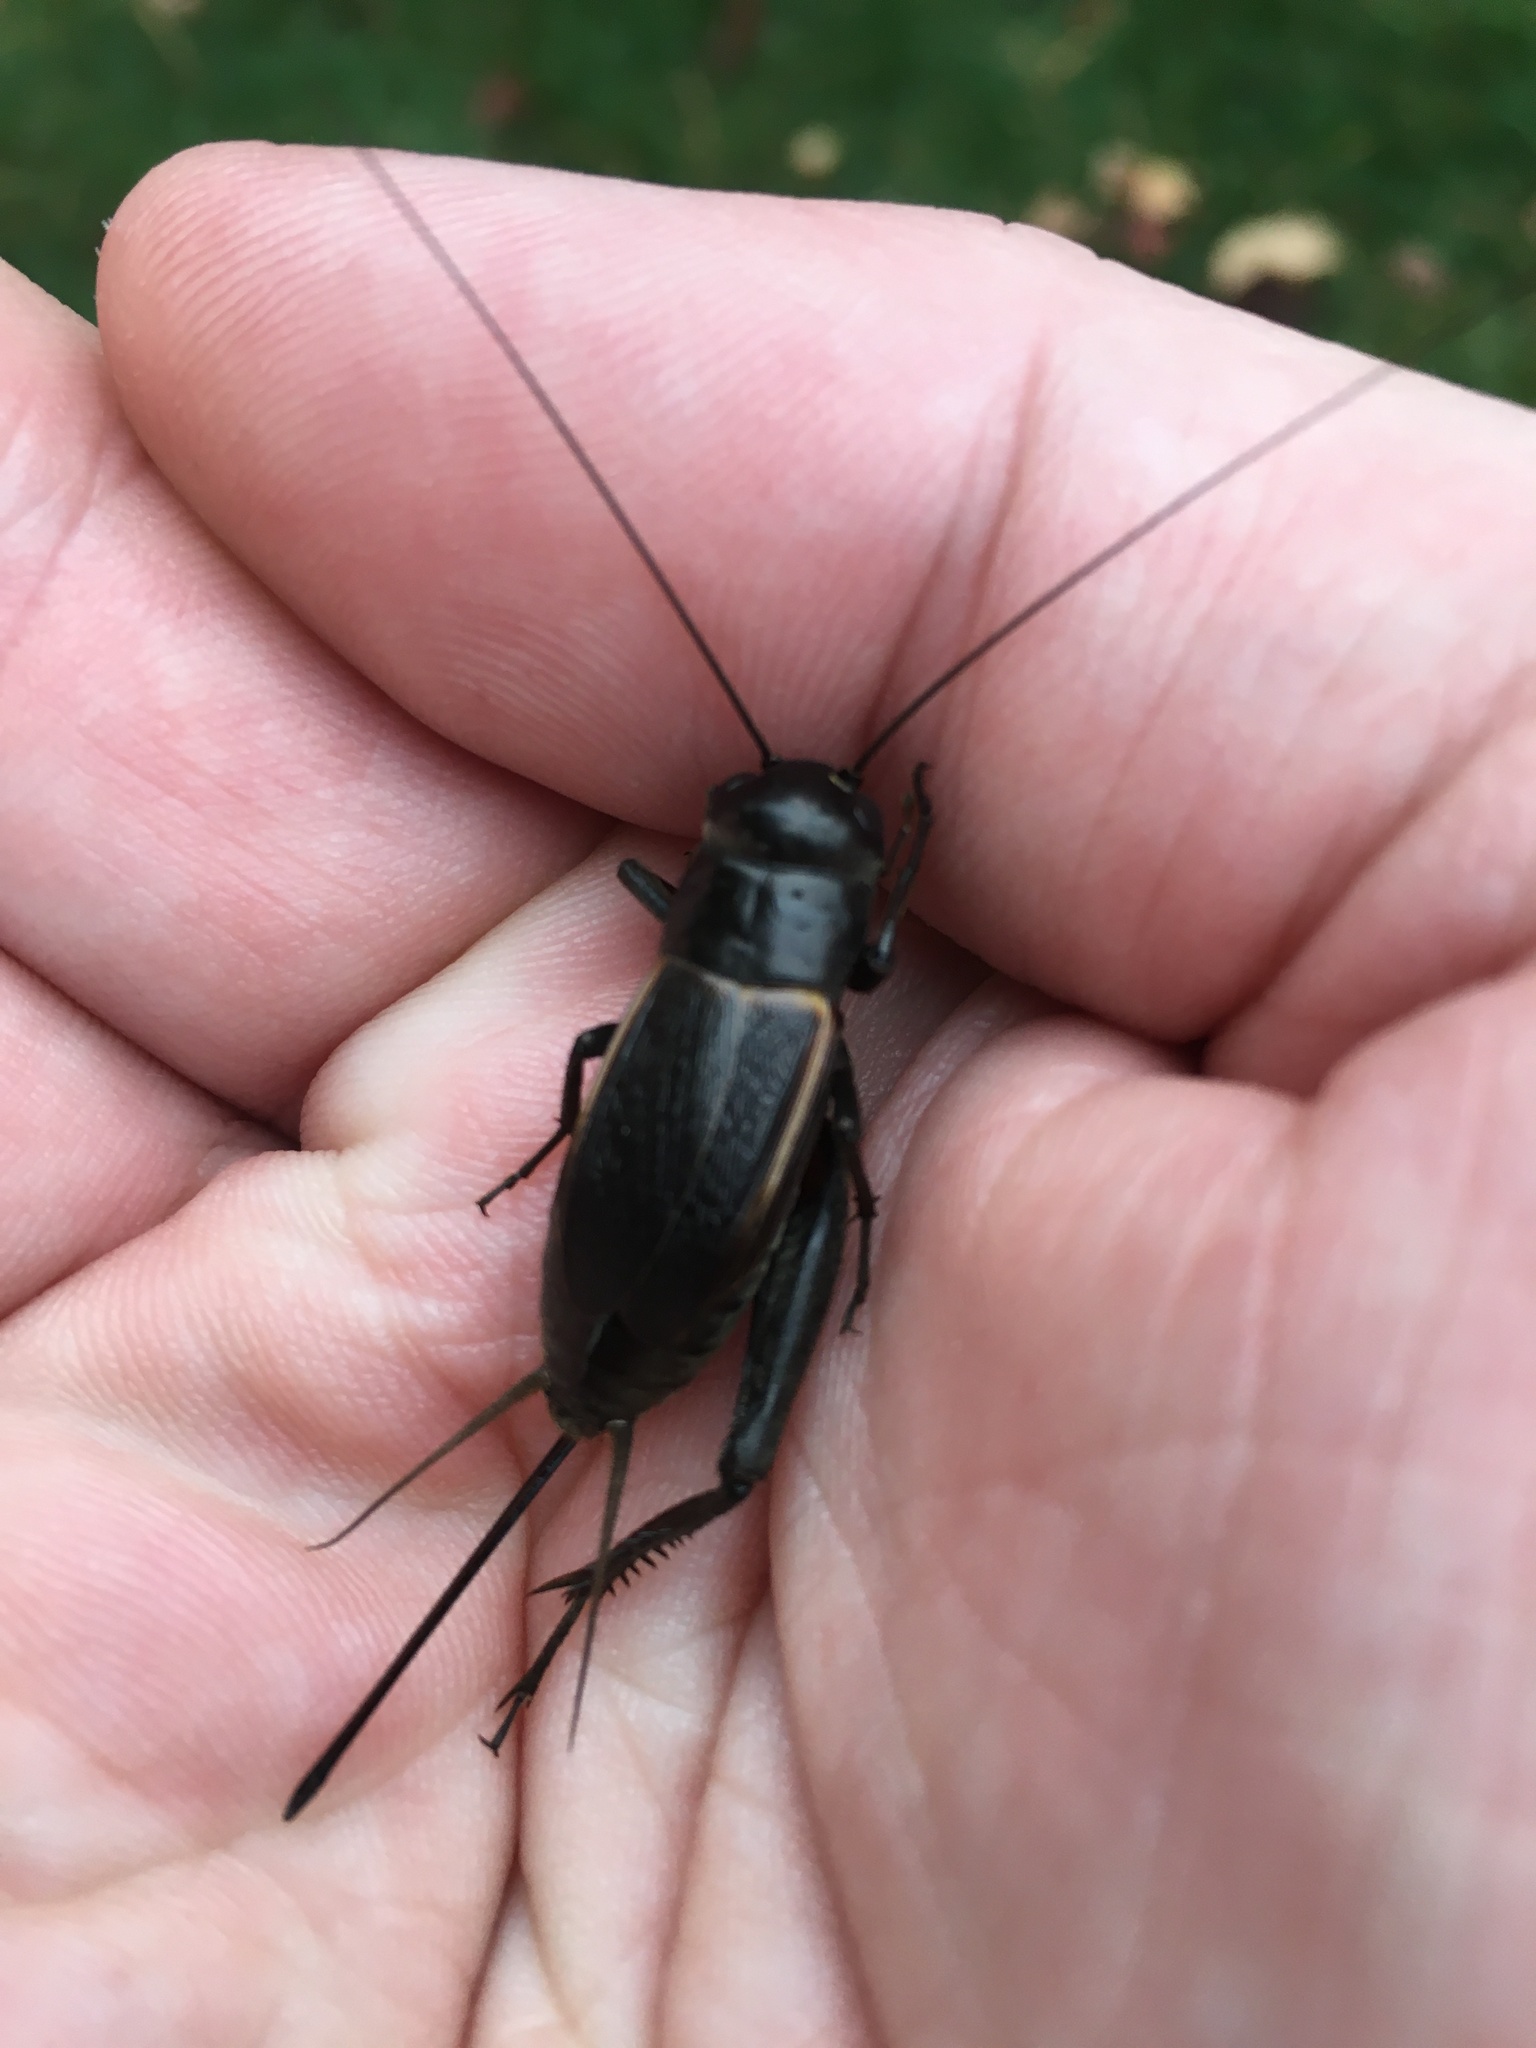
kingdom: Animalia
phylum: Arthropoda
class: Insecta
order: Orthoptera
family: Gryllidae
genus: Gryllus
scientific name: Gryllus pennsylvanicus
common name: Fall field cricket
